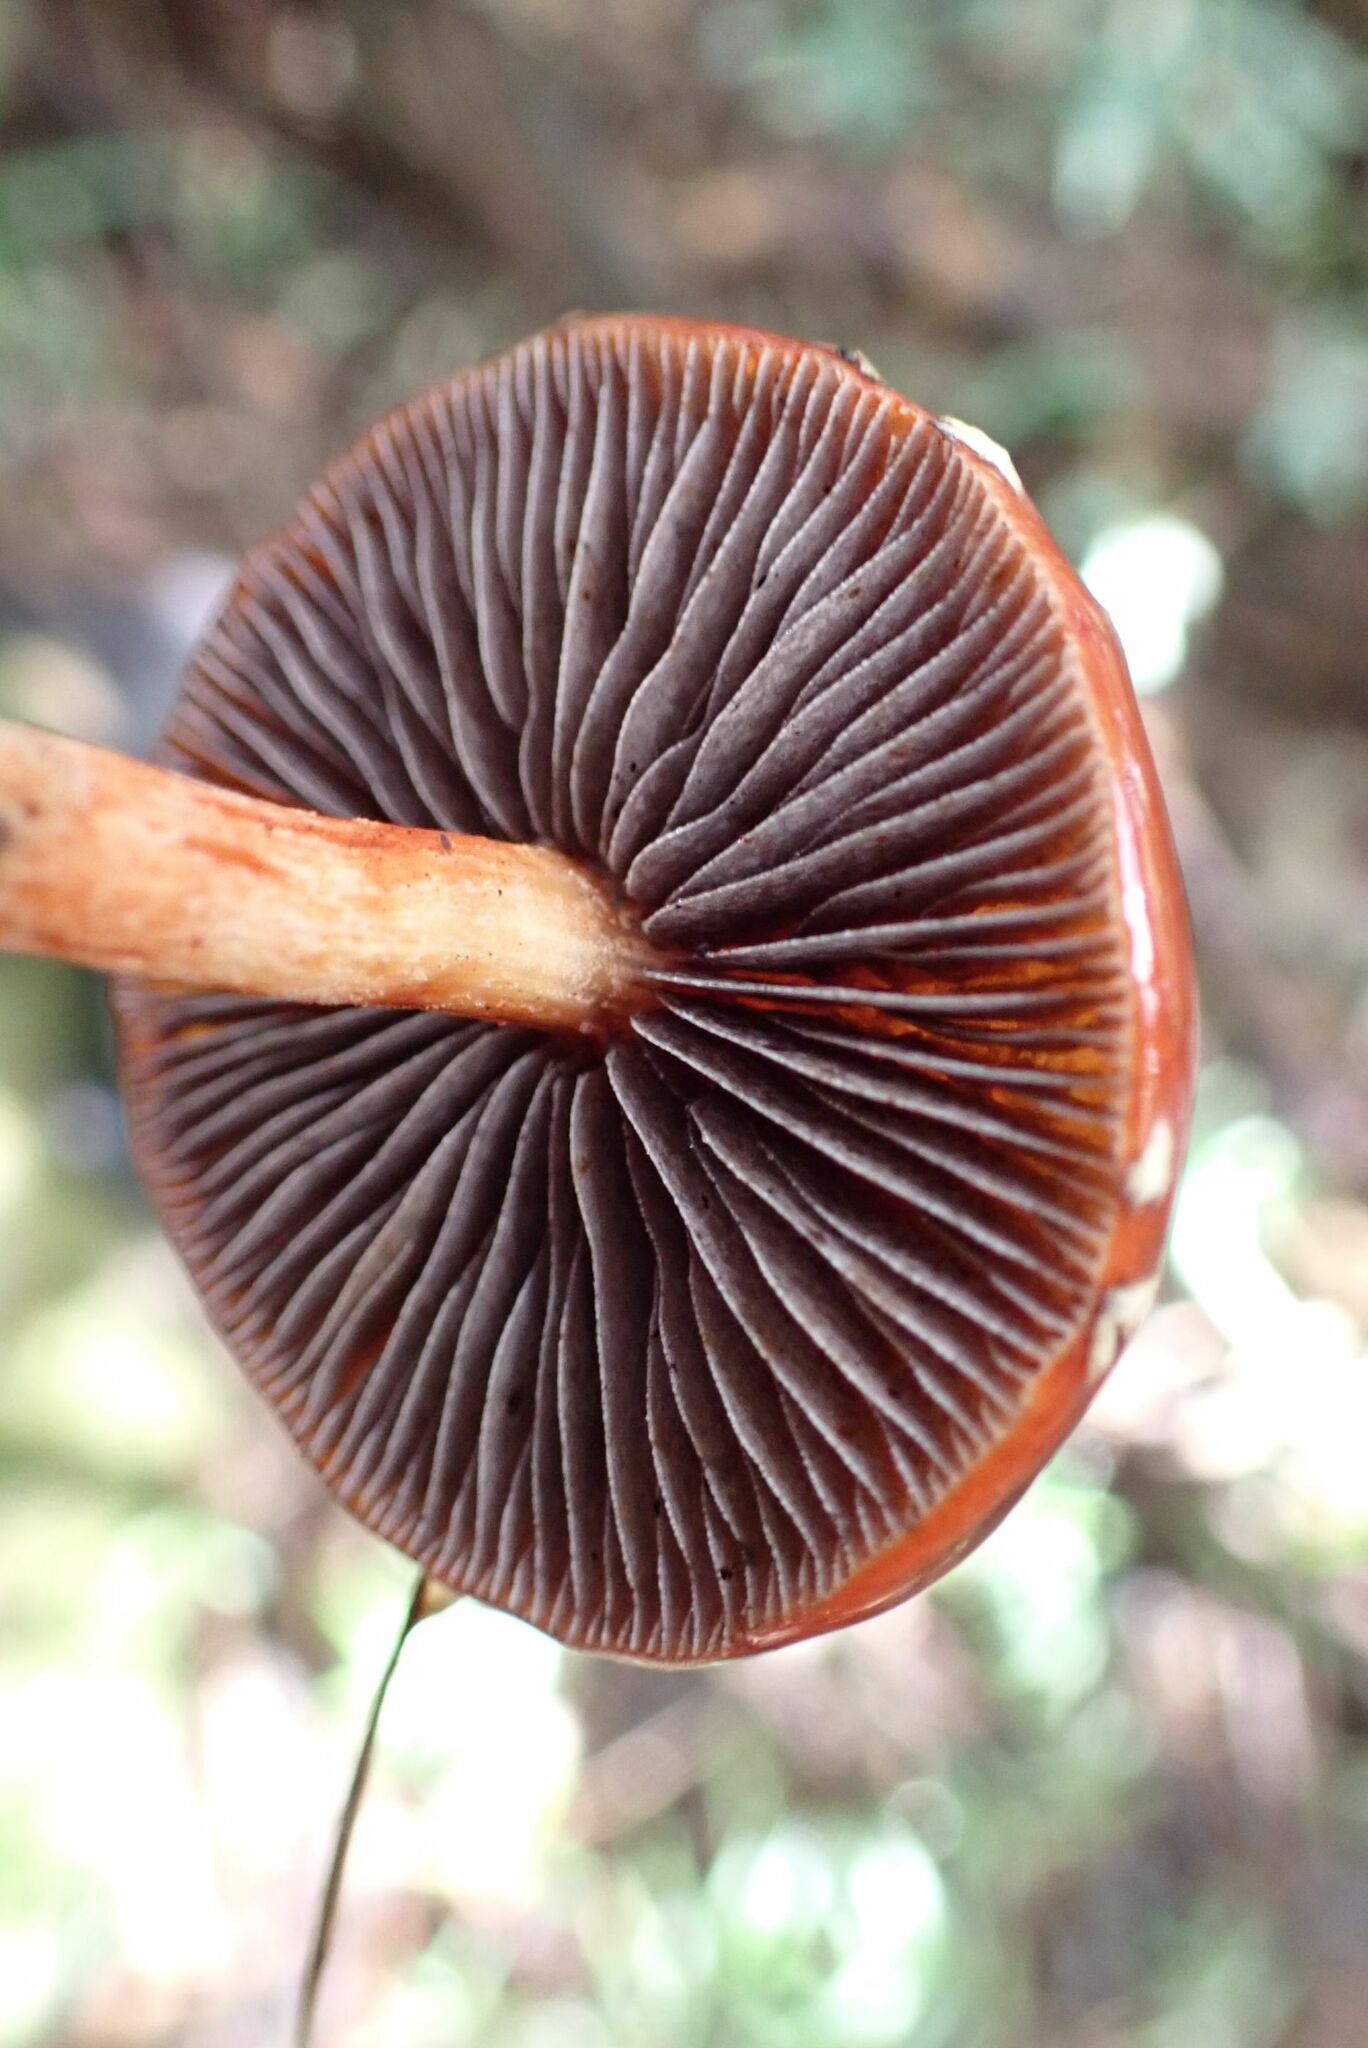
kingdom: Fungi
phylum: Basidiomycota
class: Agaricomycetes
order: Agaricales
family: Strophariaceae
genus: Leratiomyces
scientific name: Leratiomyces ceres
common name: Redlead roundhead
